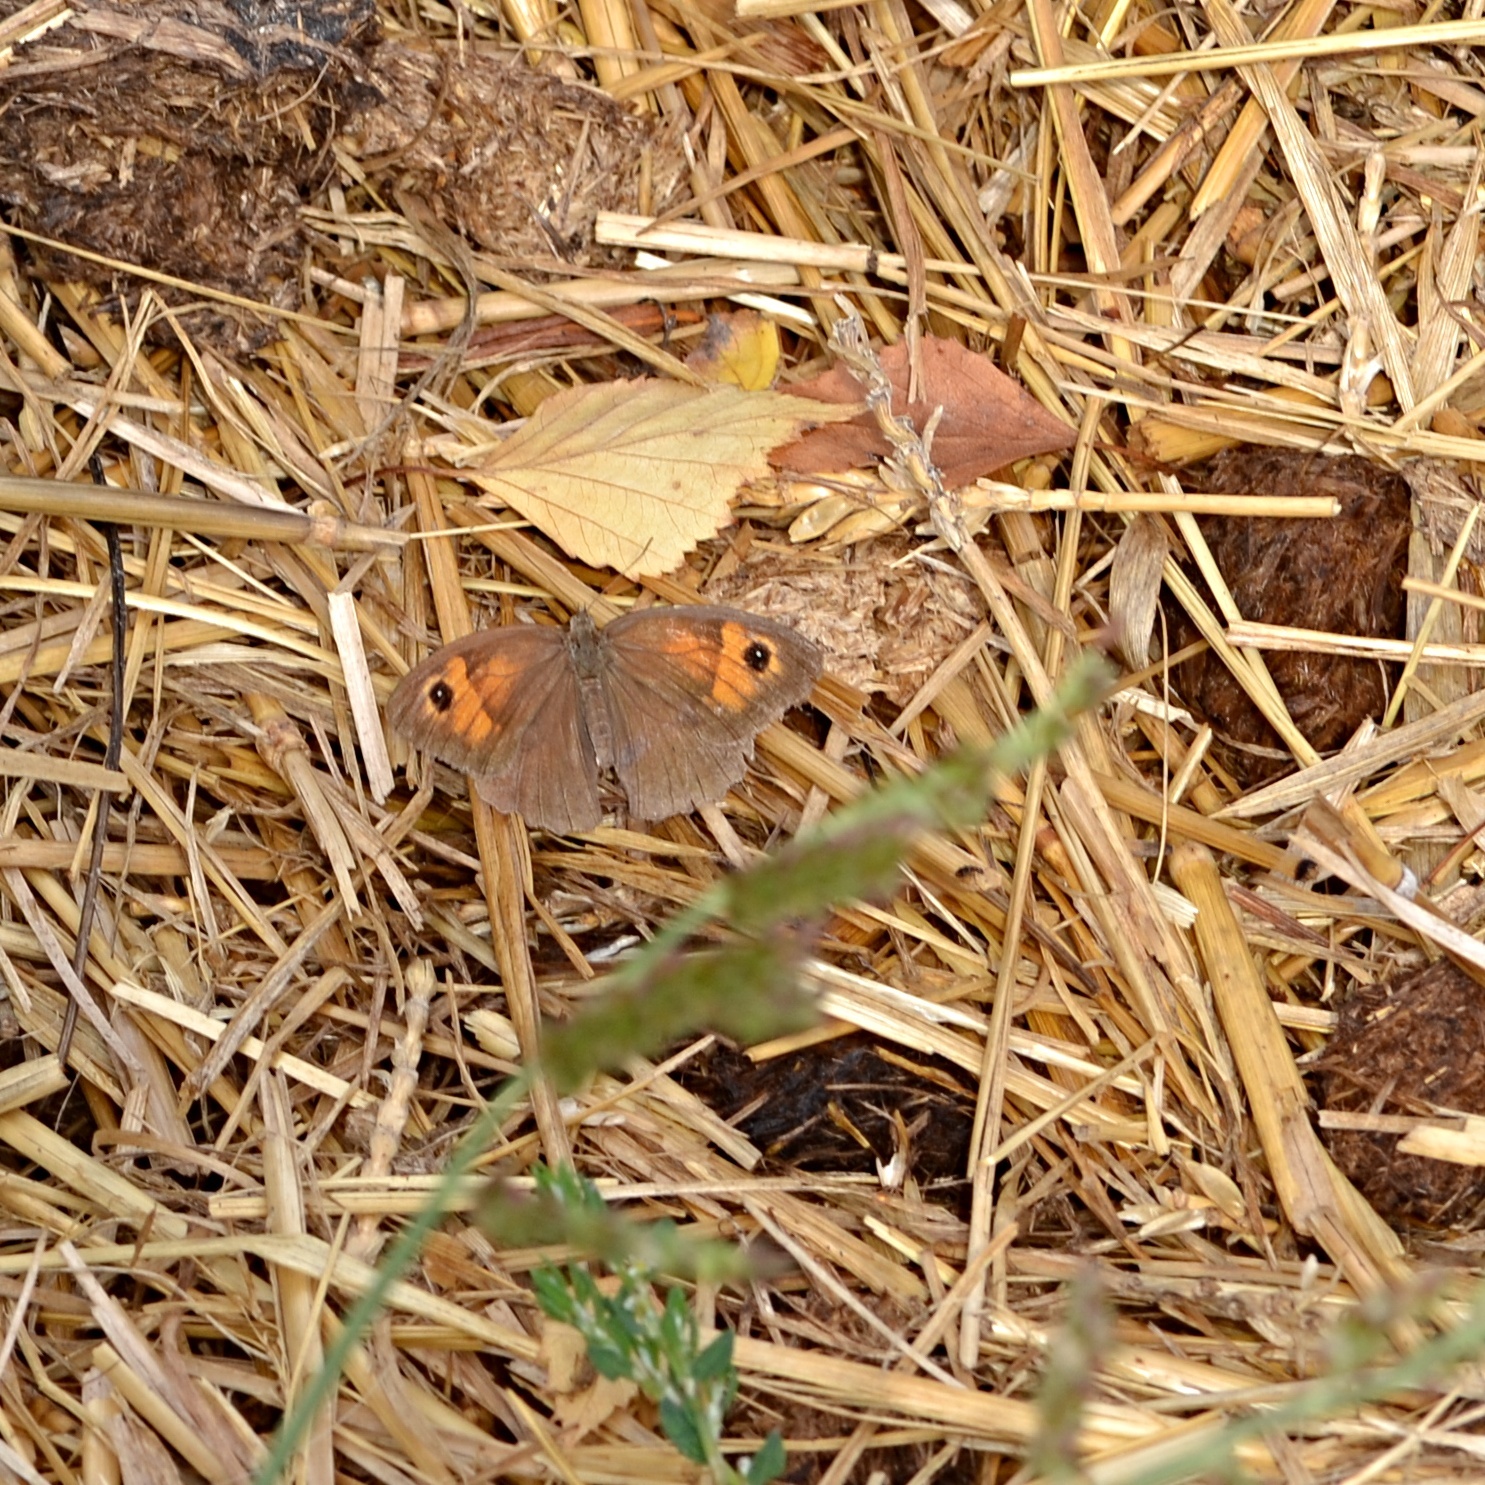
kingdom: Animalia
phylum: Arthropoda
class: Insecta
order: Lepidoptera
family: Nymphalidae
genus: Maniola
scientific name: Maniola jurtina
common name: Meadow brown
